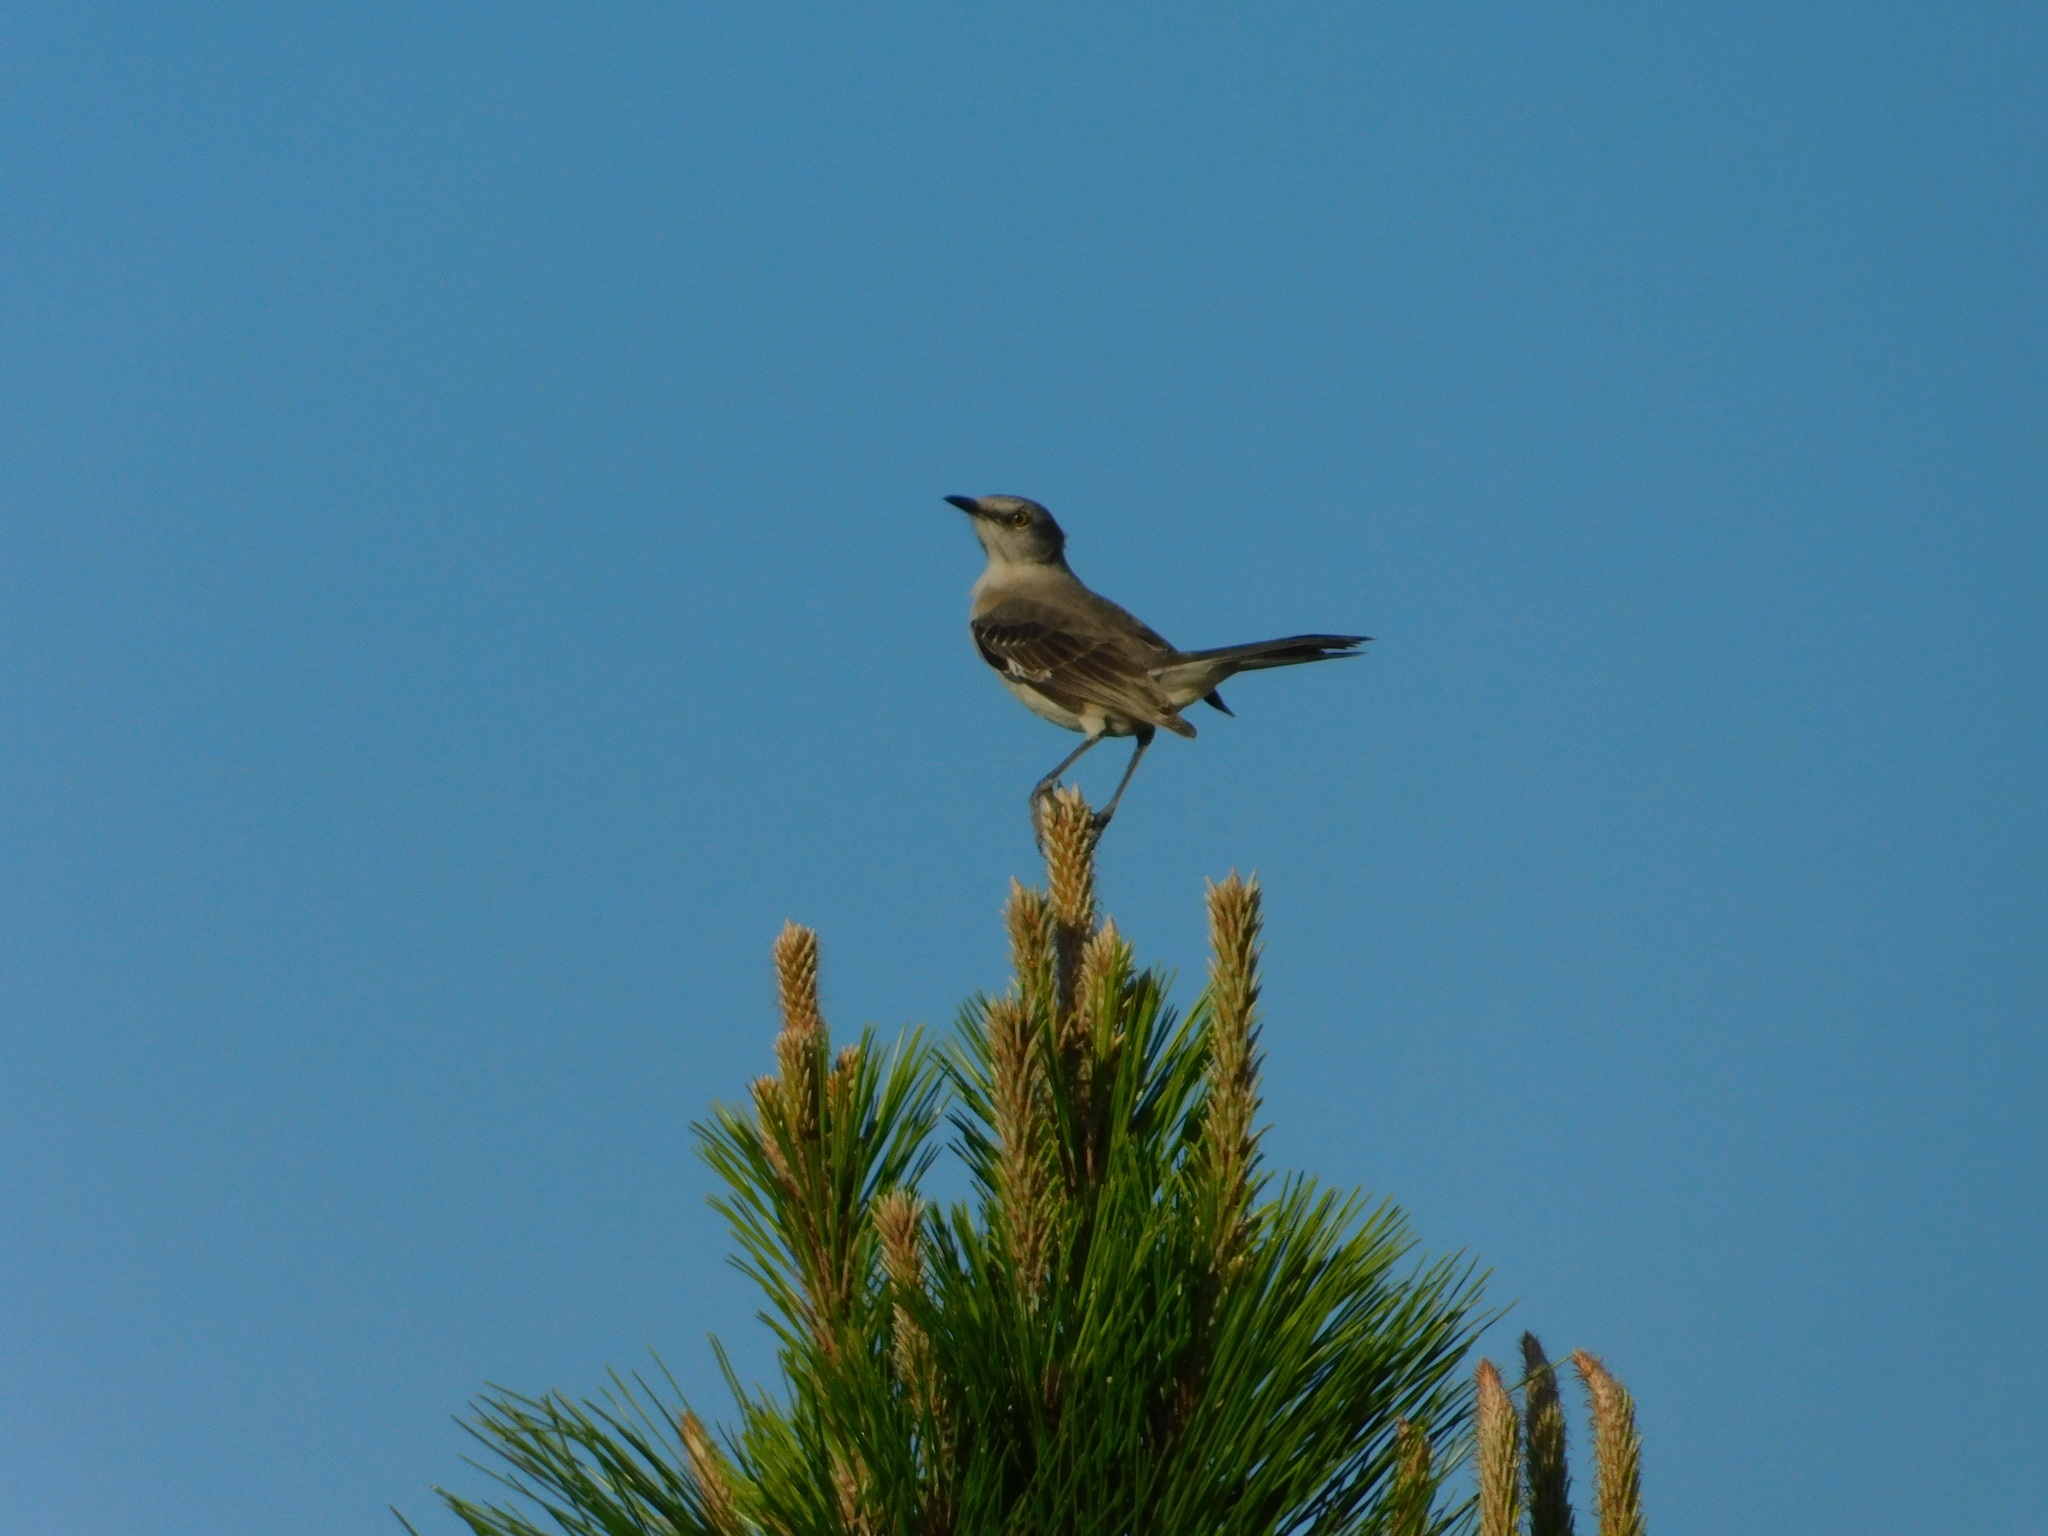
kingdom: Animalia
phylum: Chordata
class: Aves
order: Passeriformes
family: Mimidae
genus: Mimus
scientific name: Mimus polyglottos
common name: Northern mockingbird
